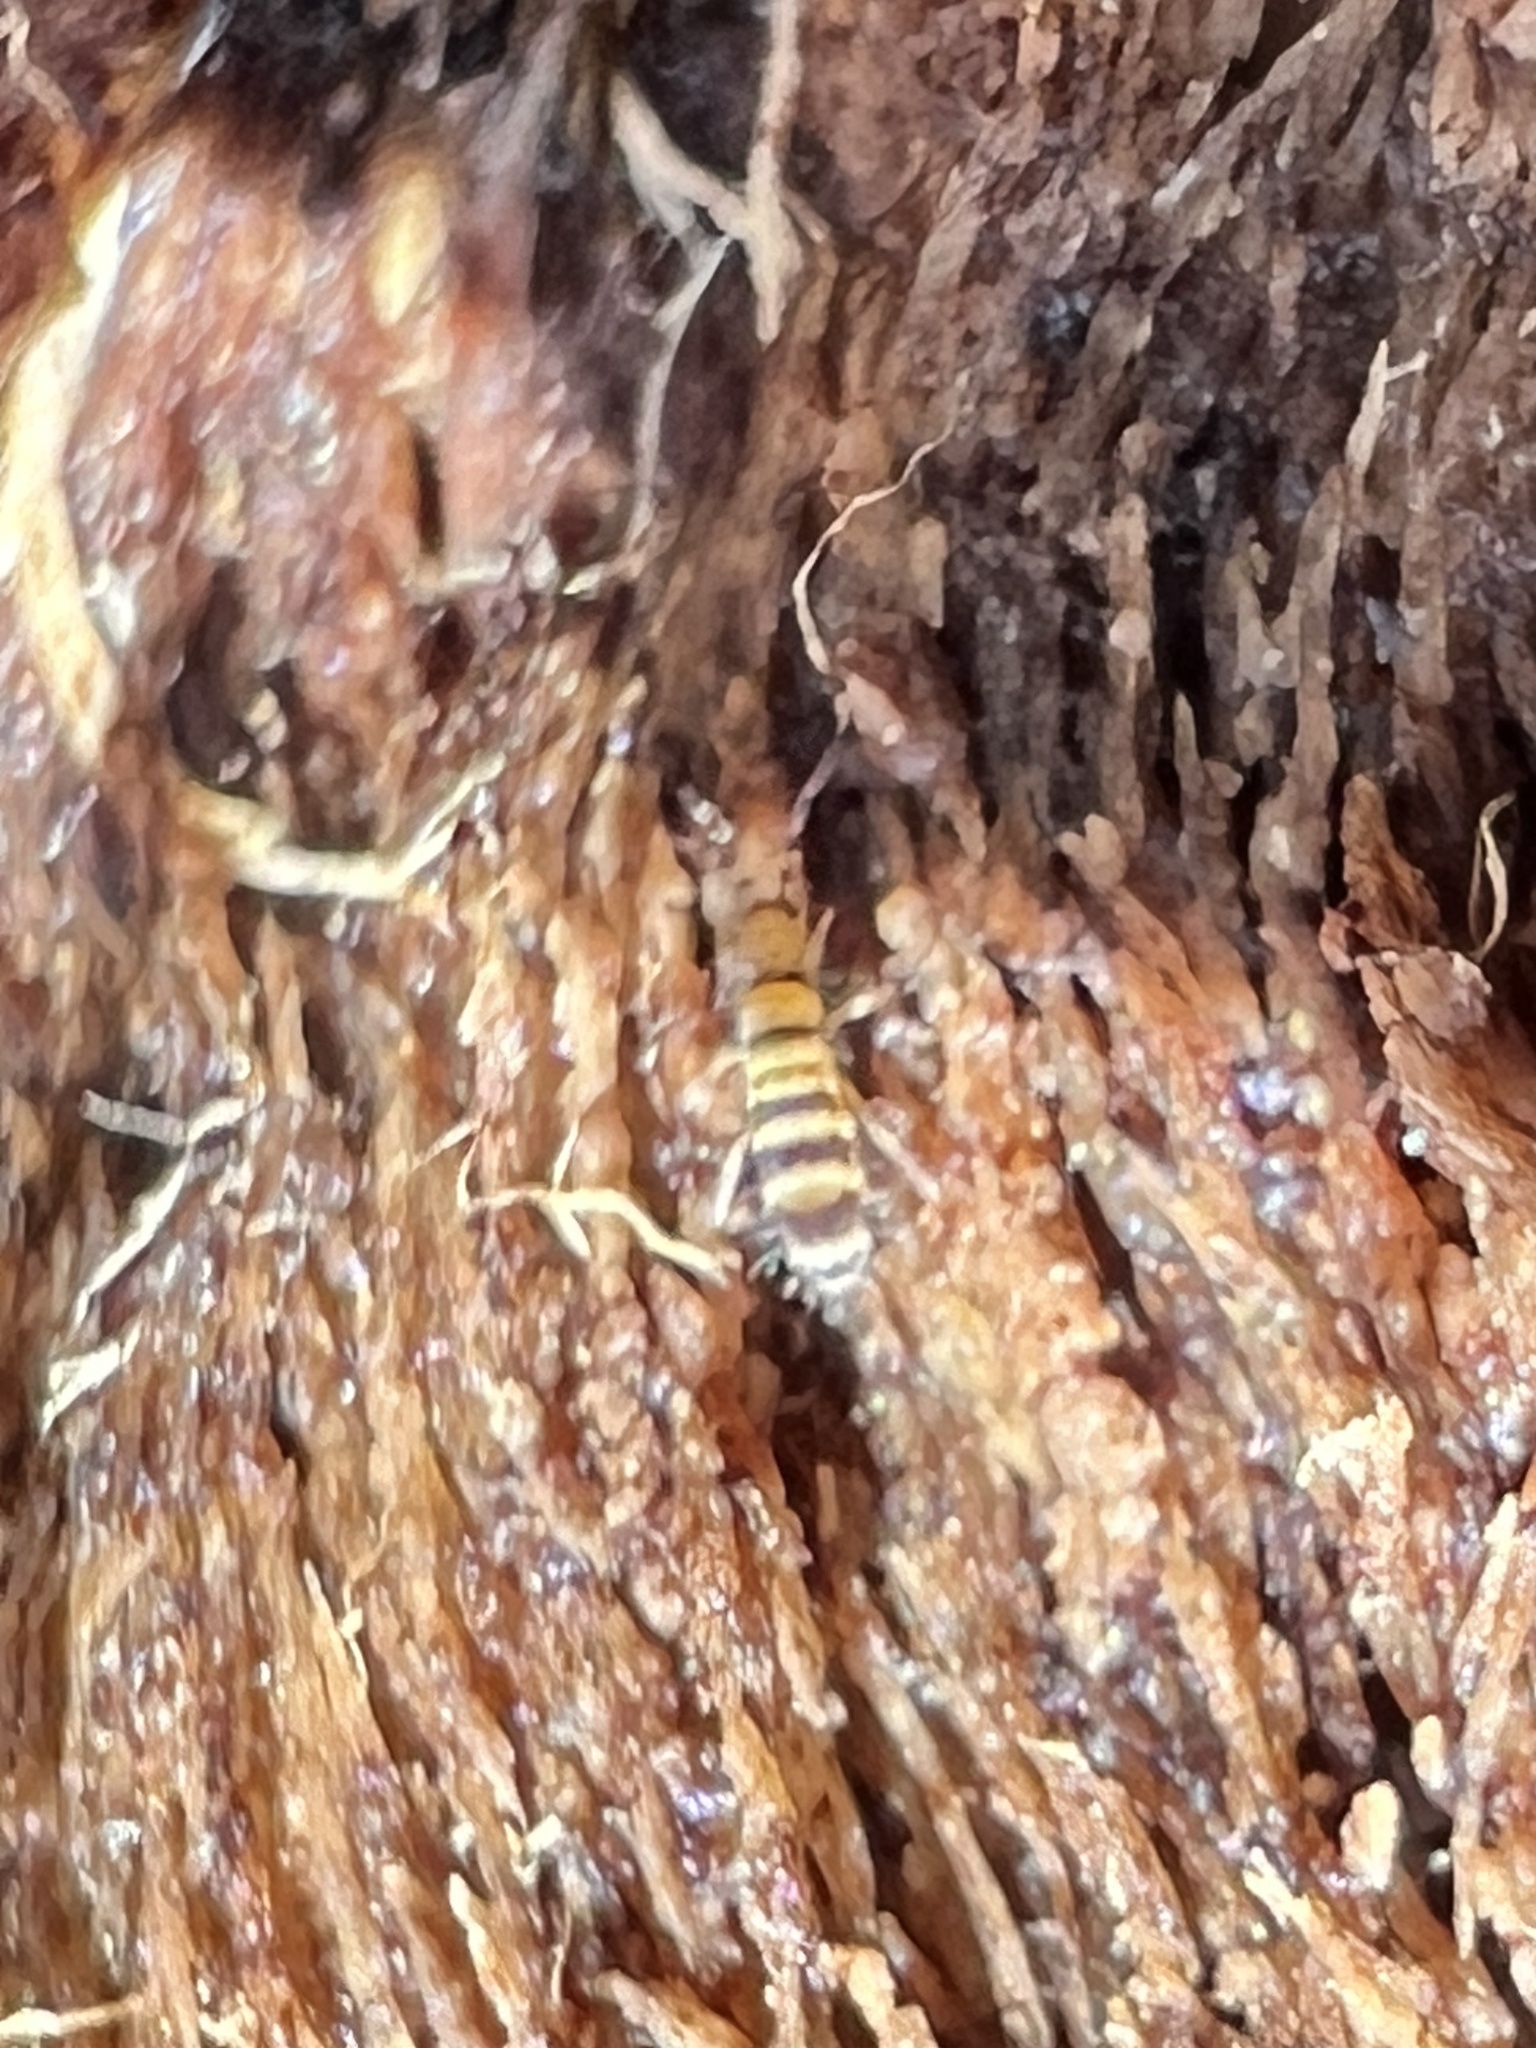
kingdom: Animalia
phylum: Arthropoda
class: Collembola
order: Entomobryomorpha
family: Orchesellidae
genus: Orchesella
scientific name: Orchesella hexfasciata
